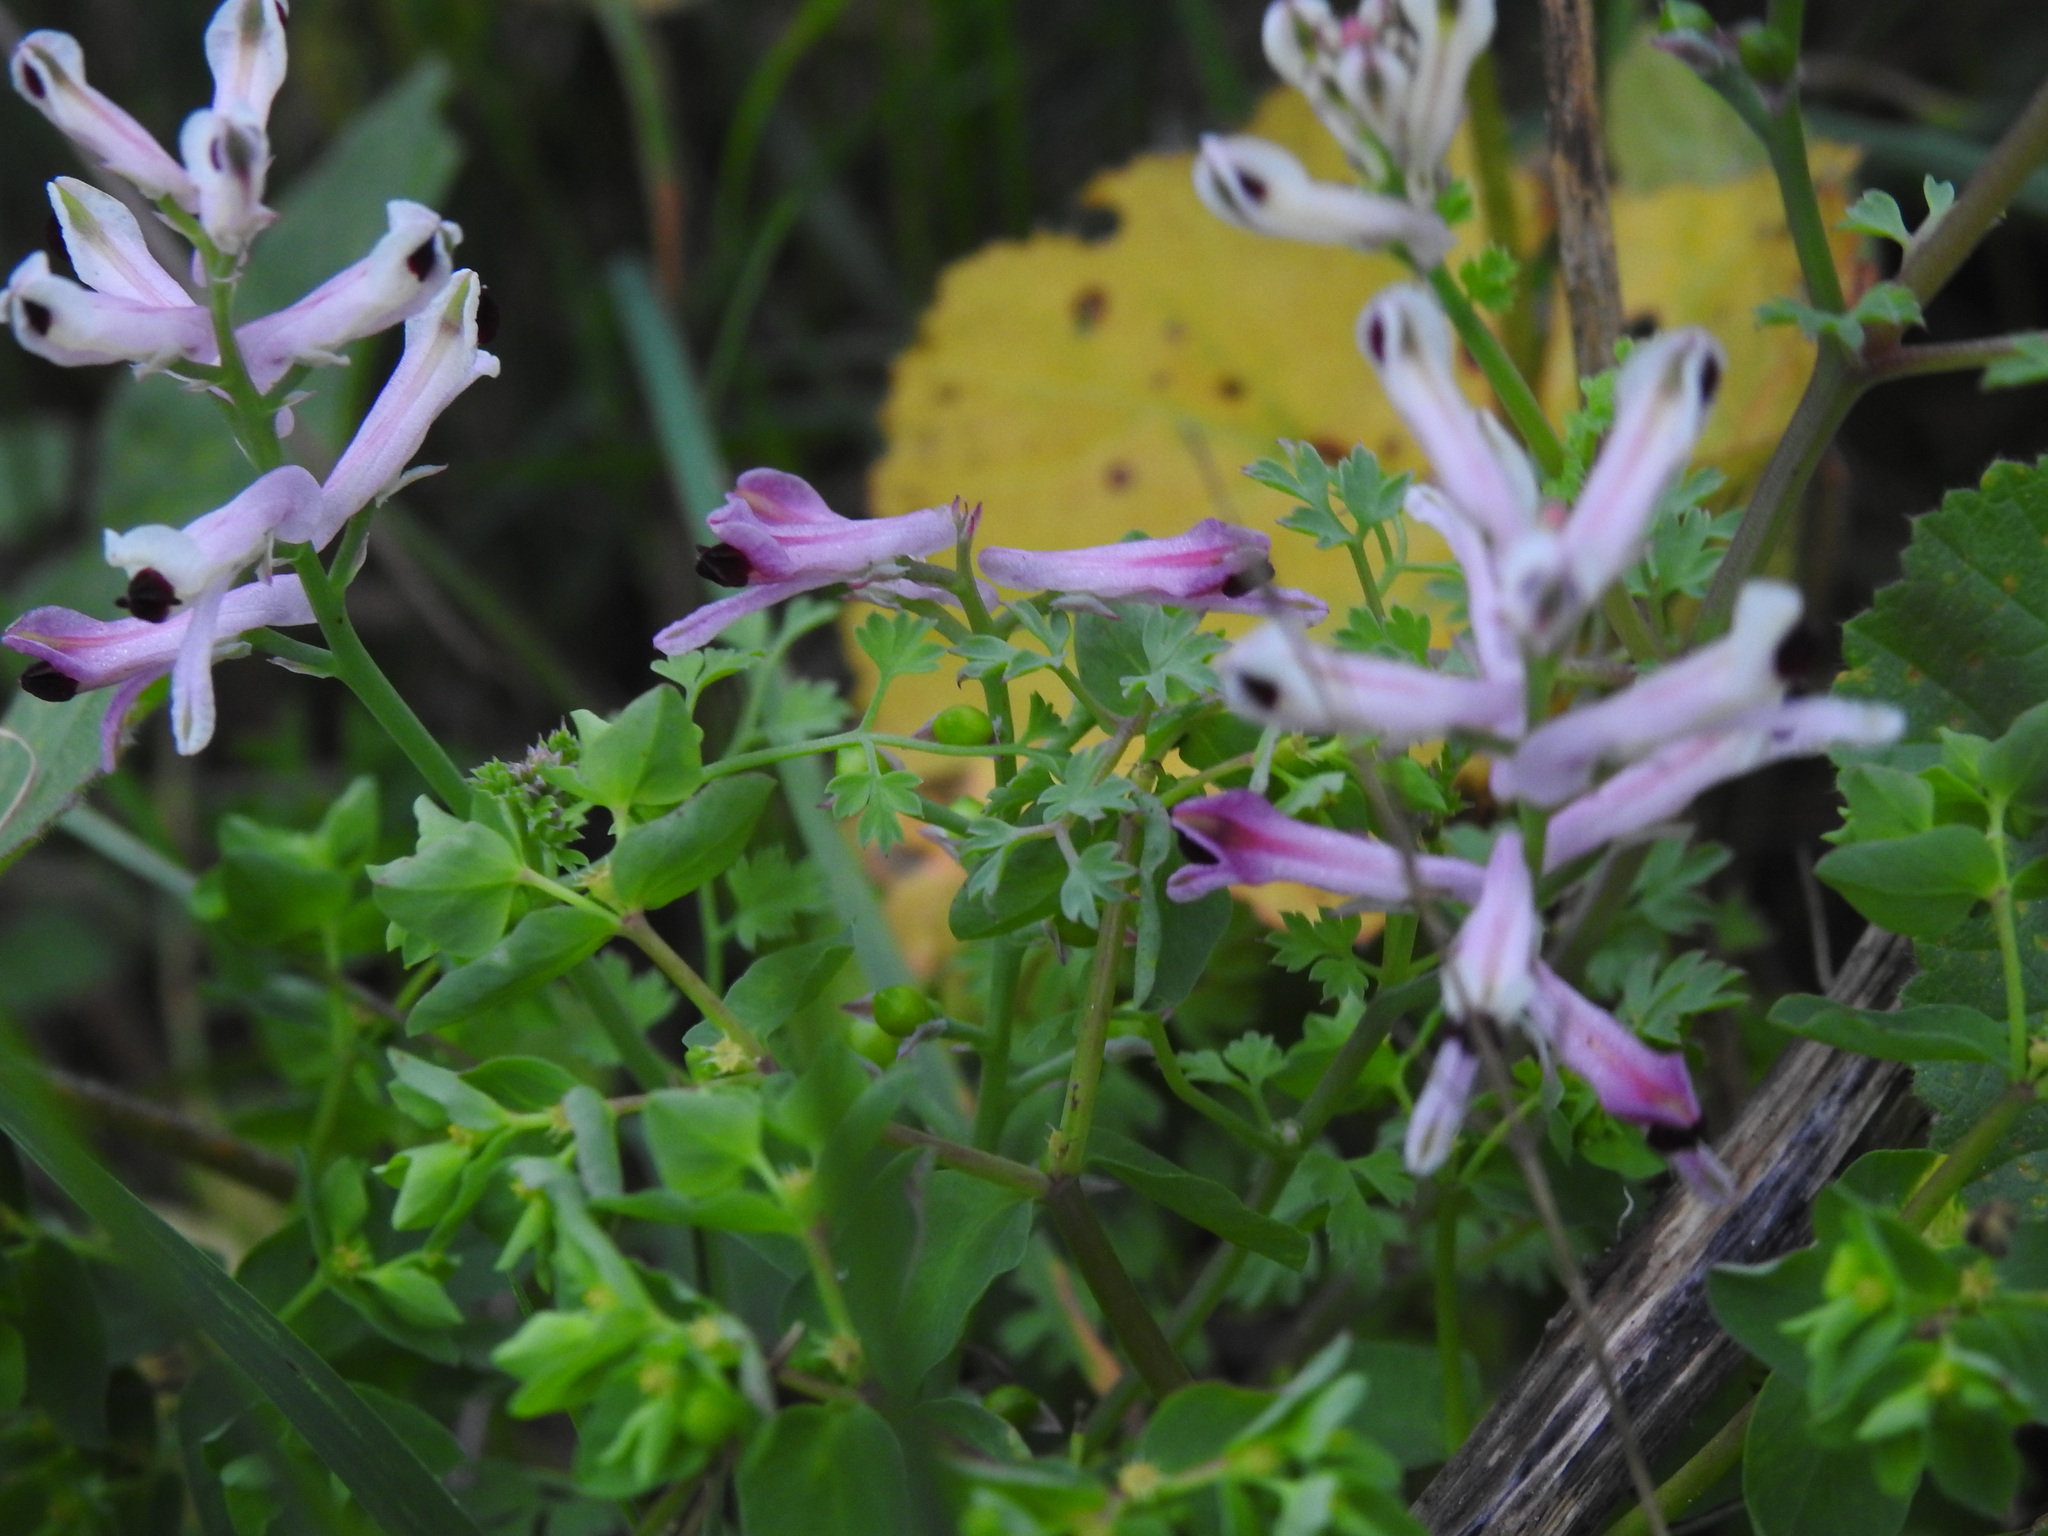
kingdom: Plantae
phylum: Tracheophyta
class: Magnoliopsida
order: Ranunculales
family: Papaveraceae
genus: Fumaria
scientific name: Fumaria agraria
